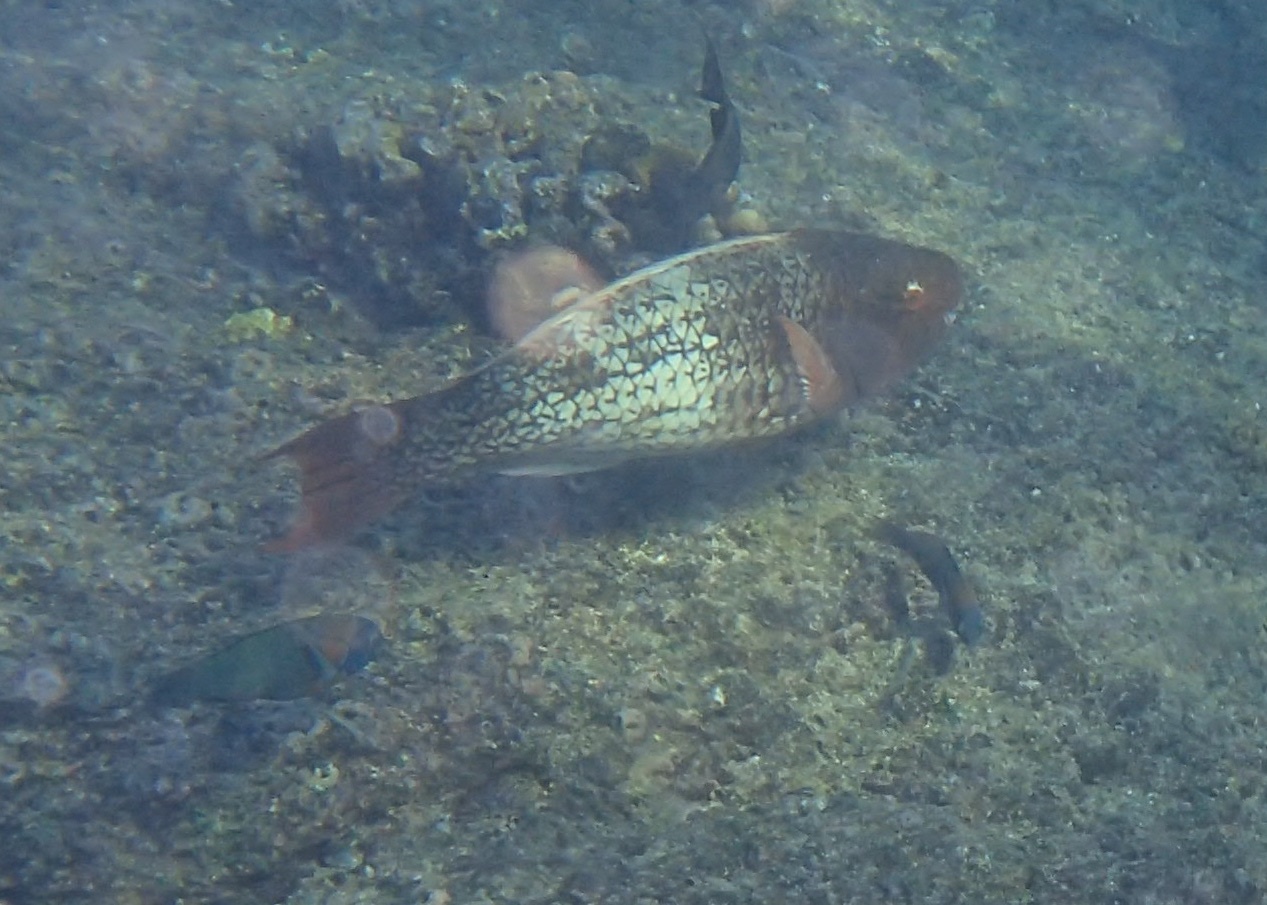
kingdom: Animalia
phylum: Chordata
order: Perciformes
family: Scaridae
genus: Scarus
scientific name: Scarus rubroviolaceus
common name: Ember parrotfish
